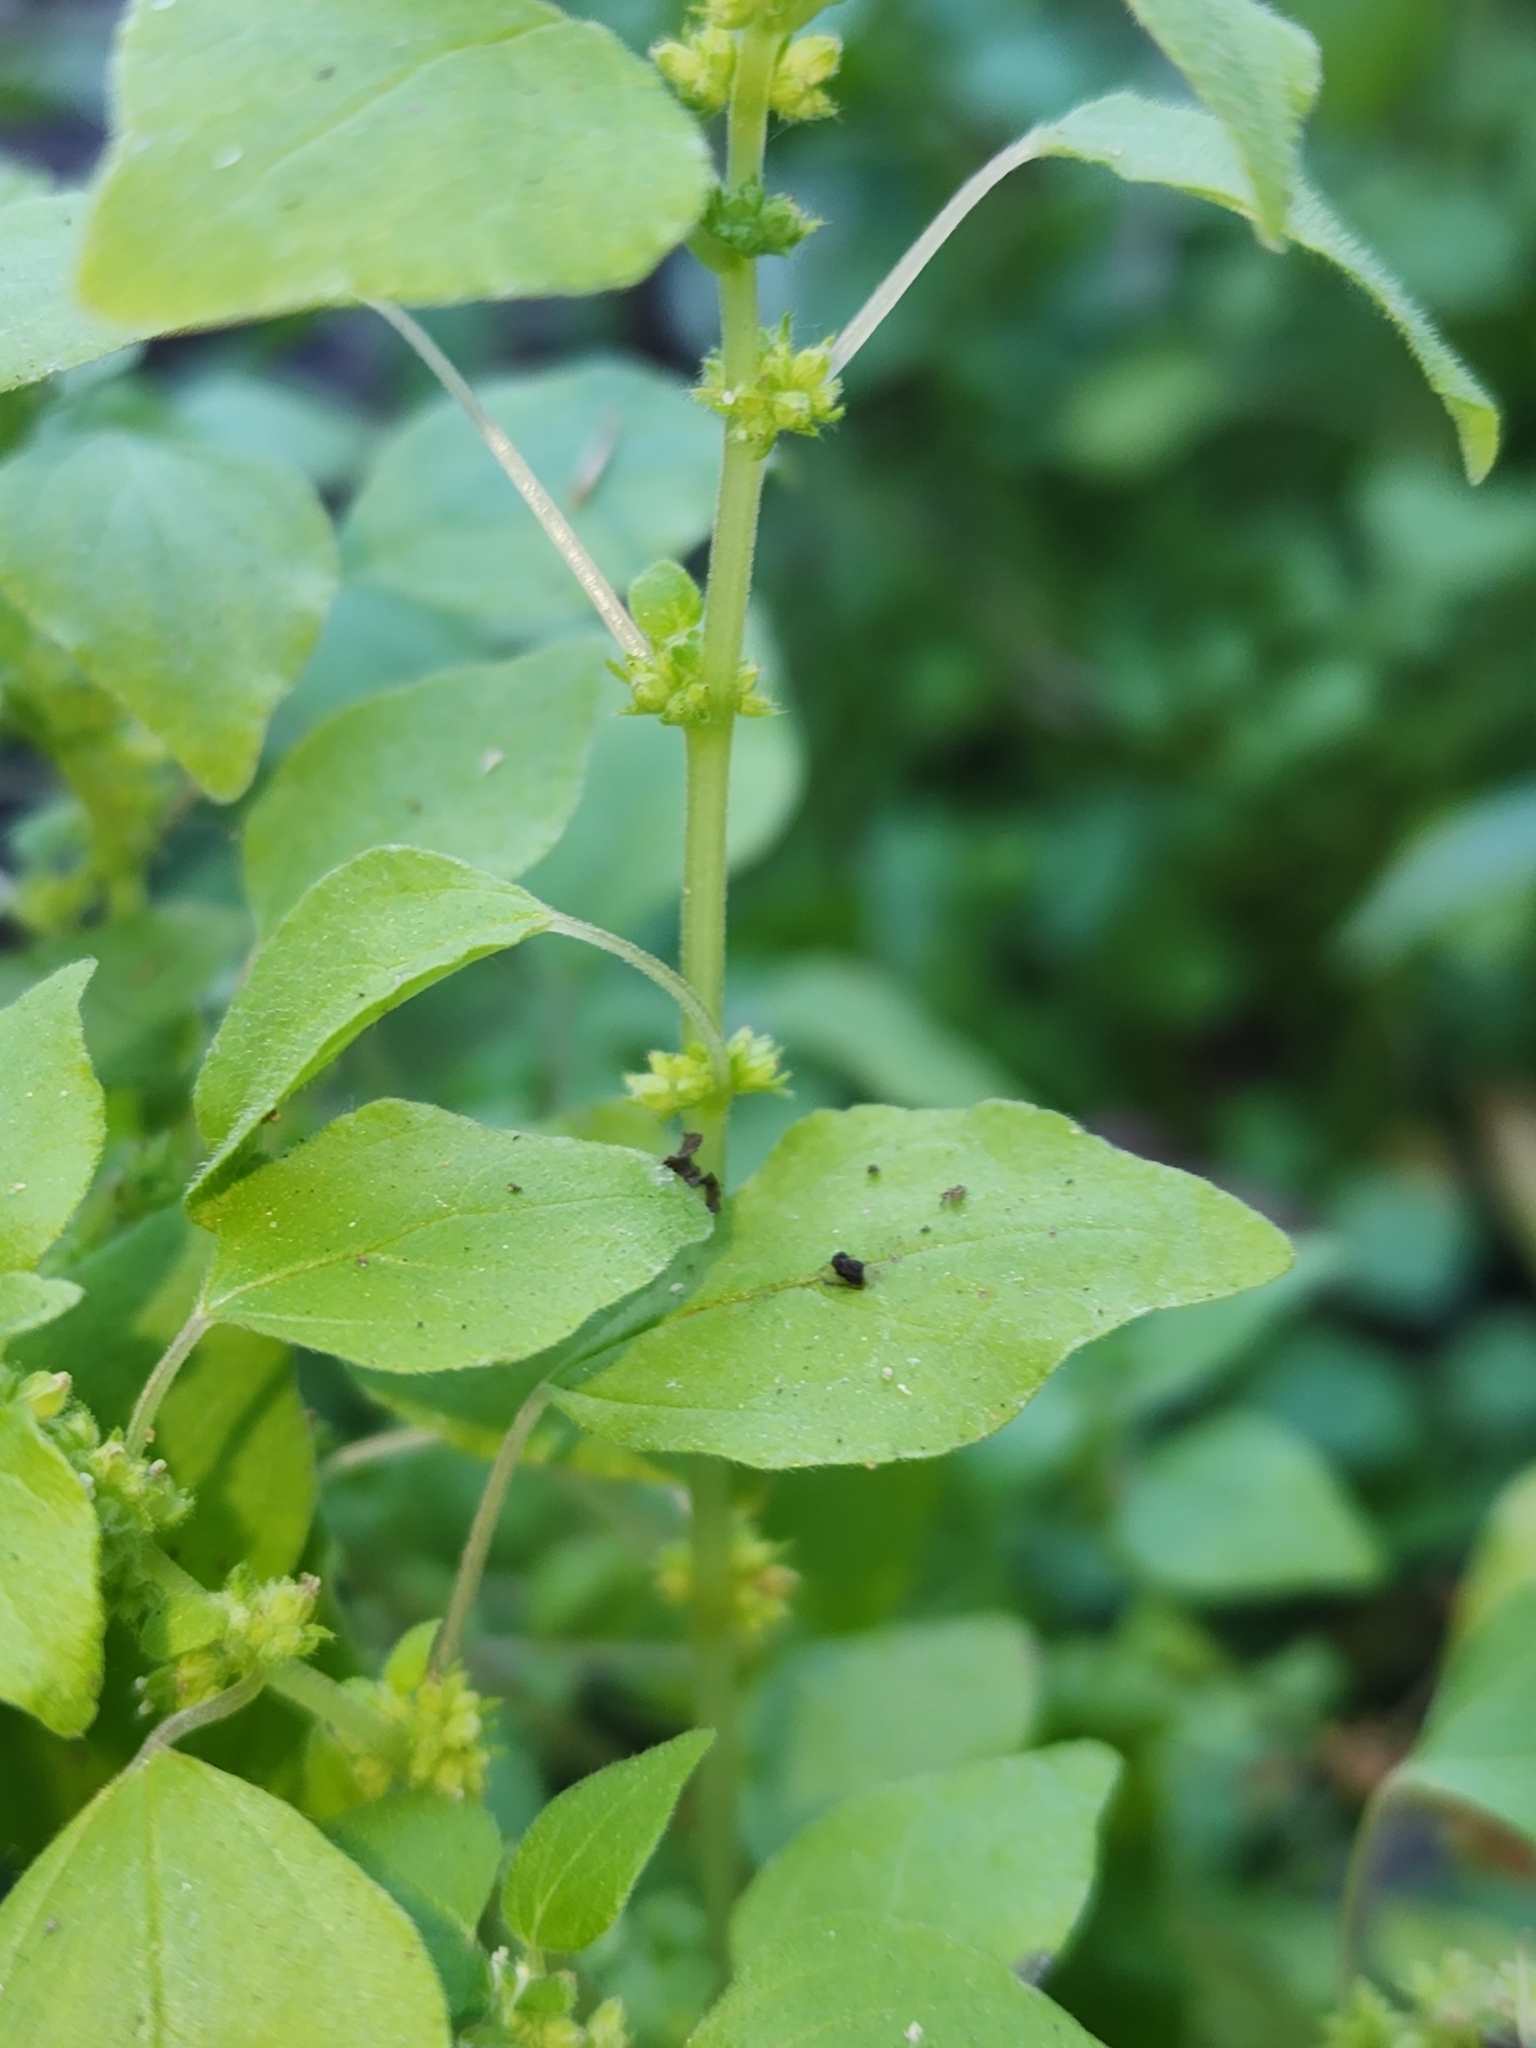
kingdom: Plantae
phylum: Tracheophyta
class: Magnoliopsida
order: Rosales
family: Urticaceae
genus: Parietaria
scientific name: Parietaria floridana
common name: Florida pellitory
